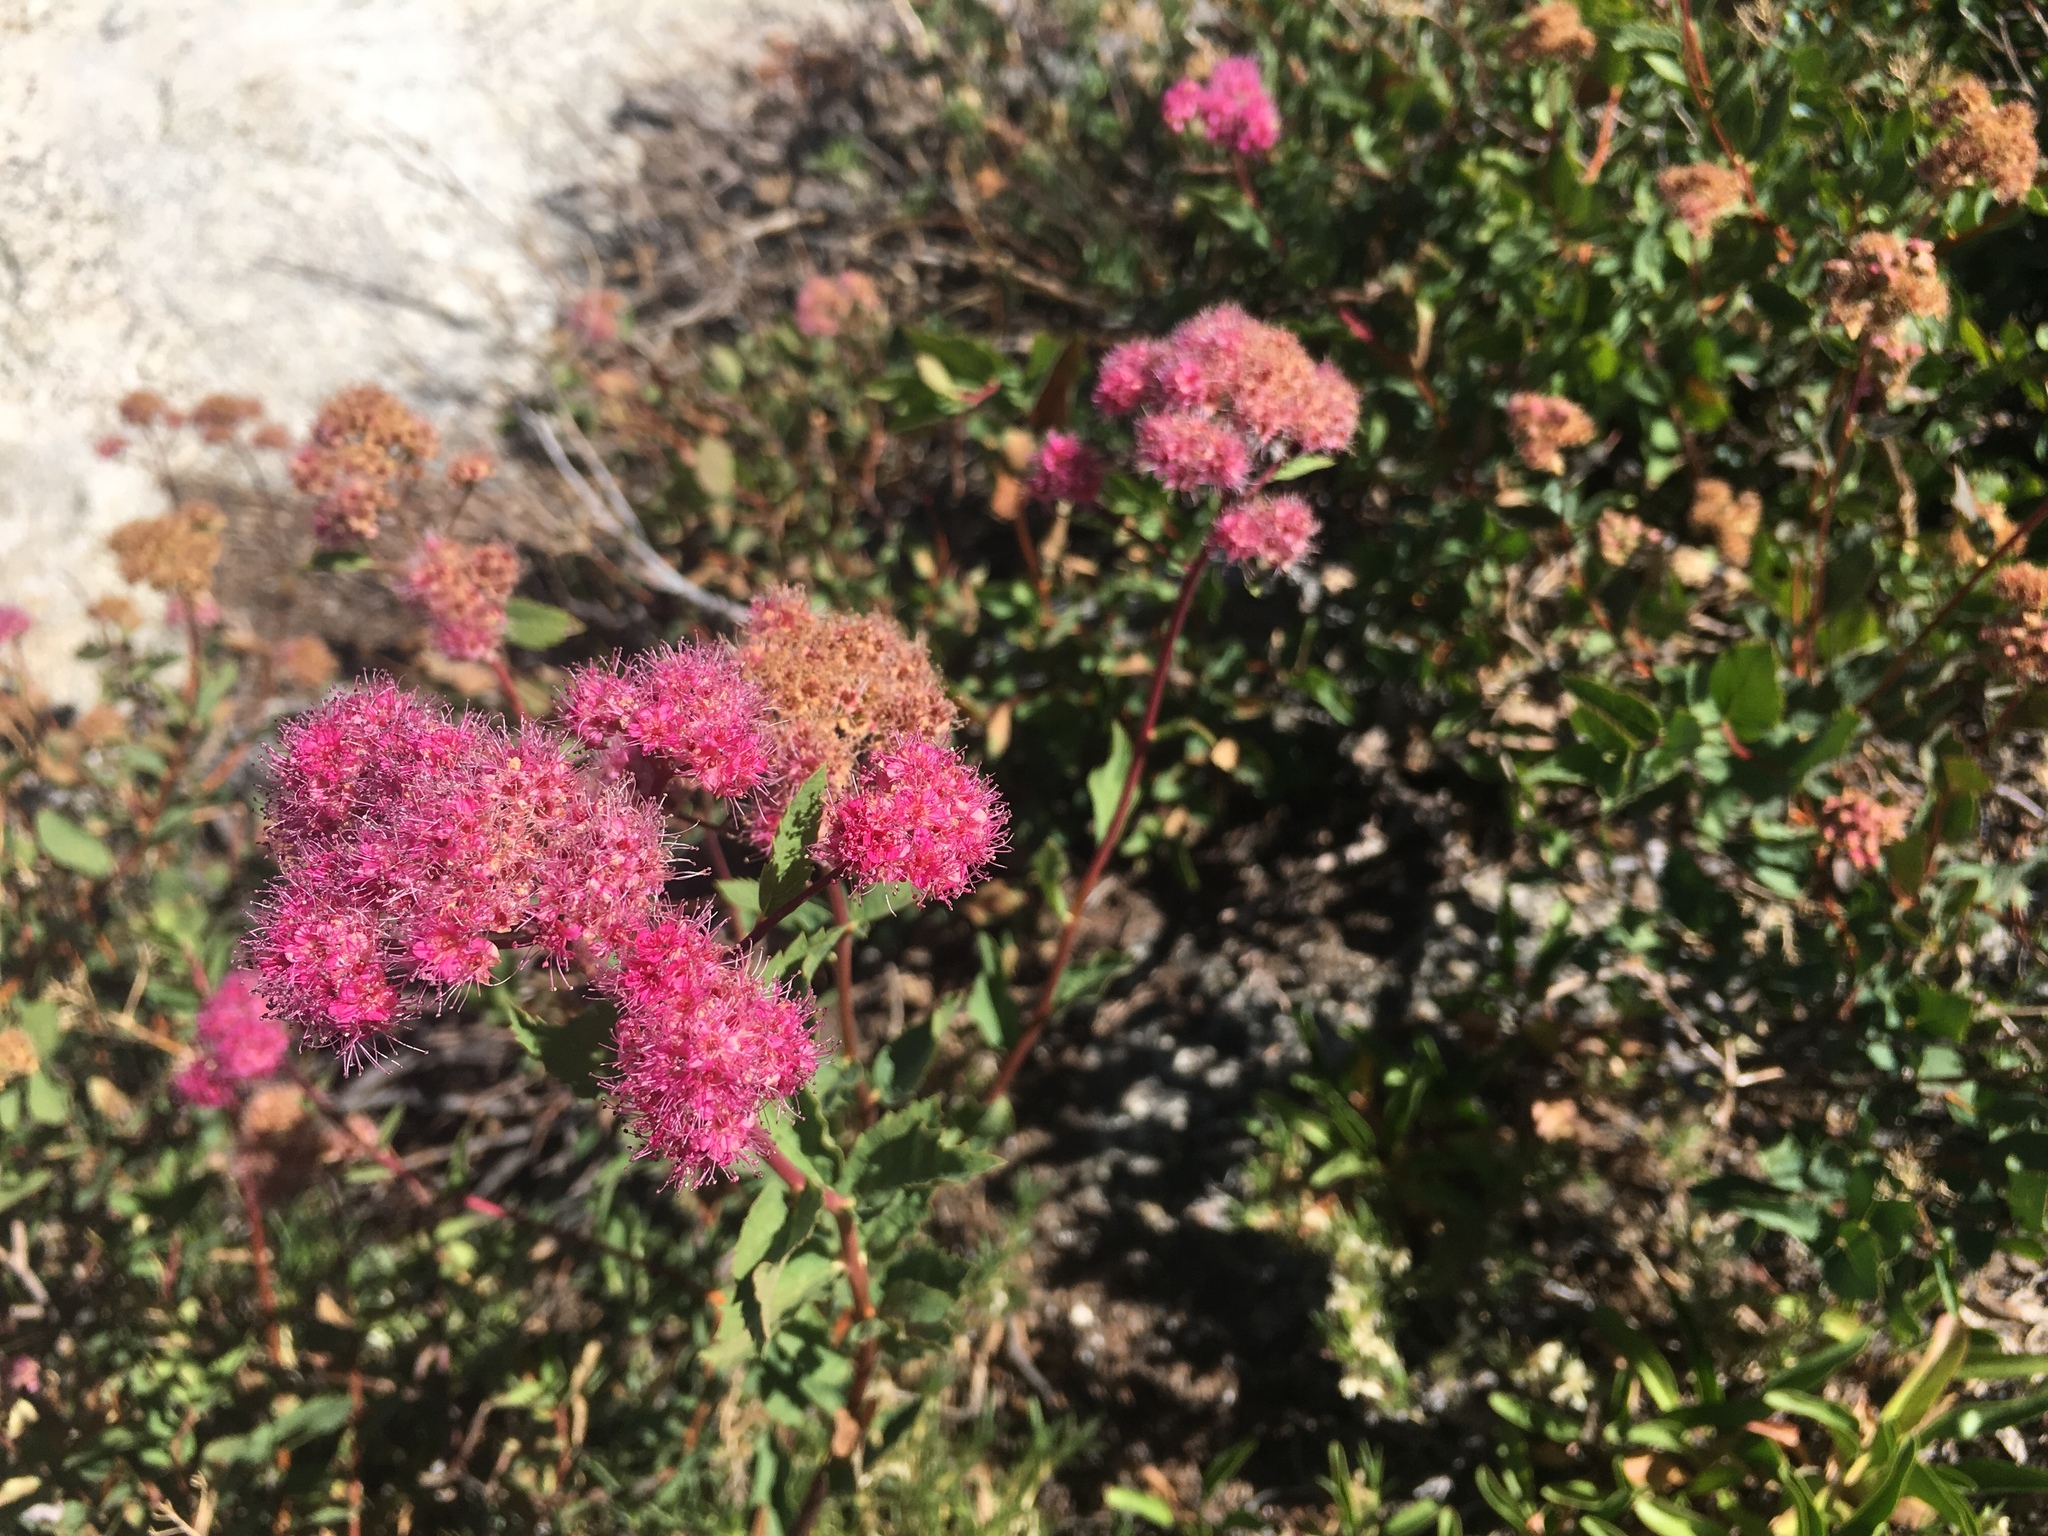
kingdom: Plantae
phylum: Tracheophyta
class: Magnoliopsida
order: Rosales
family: Rosaceae
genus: Spiraea
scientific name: Spiraea splendens
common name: Subalpine meadowsweet
